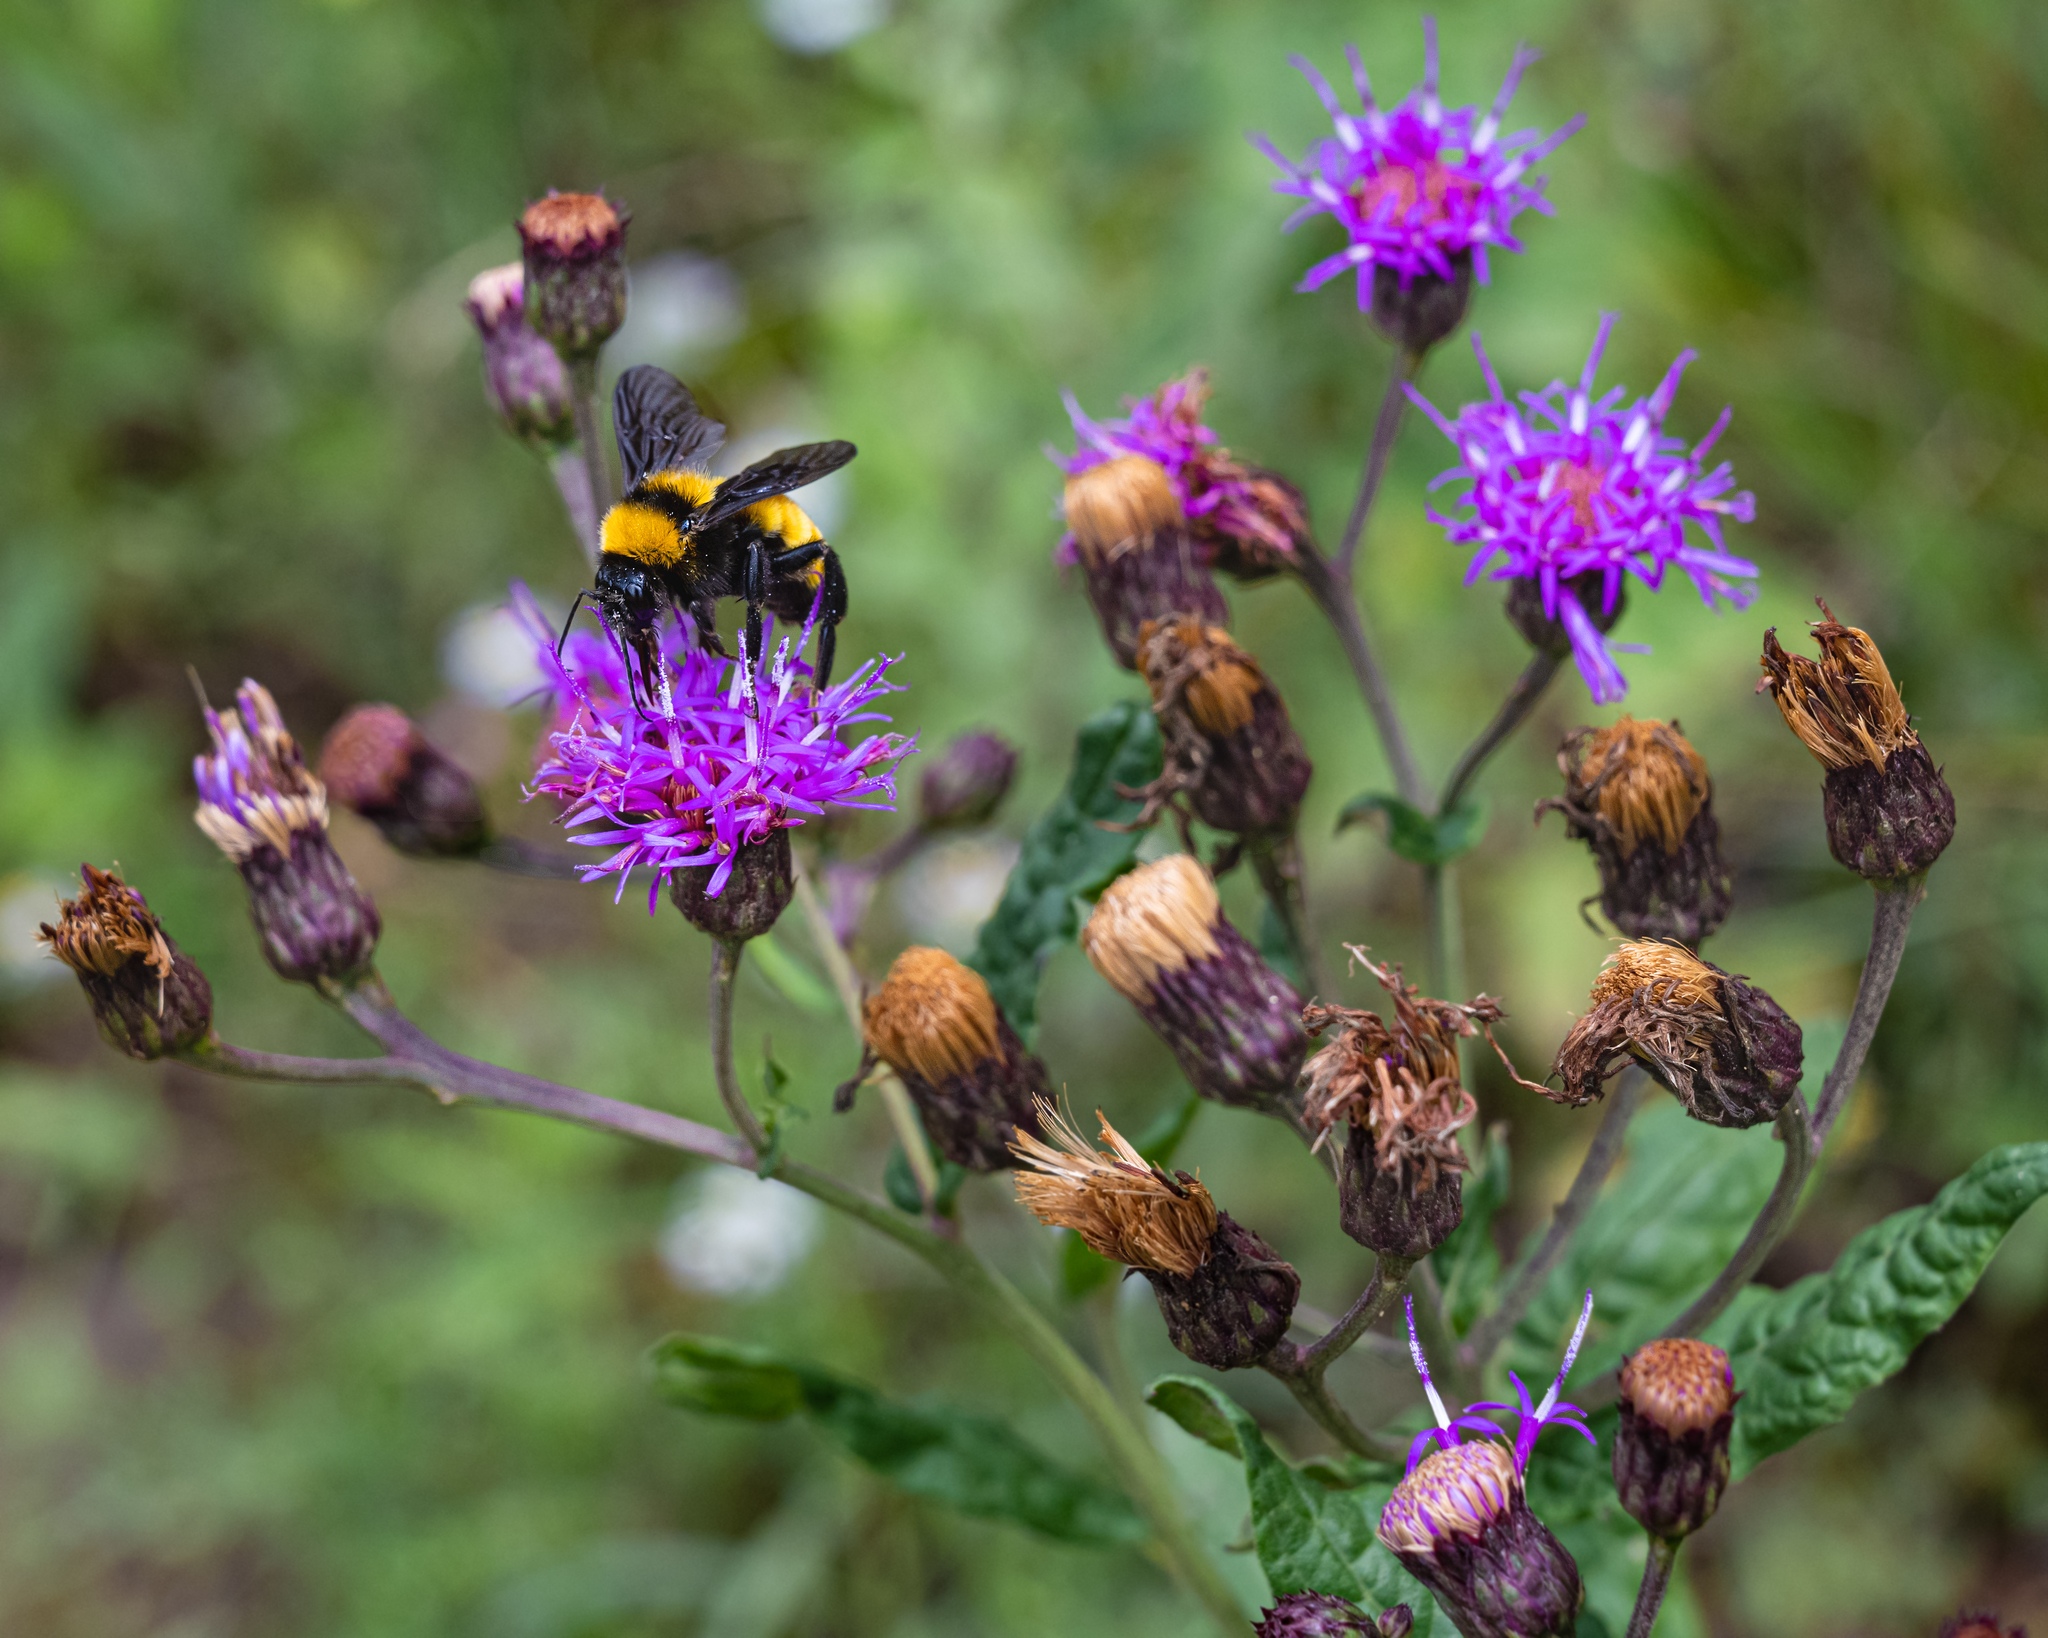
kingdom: Animalia
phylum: Arthropoda
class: Insecta
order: Hymenoptera
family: Apidae
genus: Bombus
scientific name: Bombus sonorus
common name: Sonoran bumble bee
